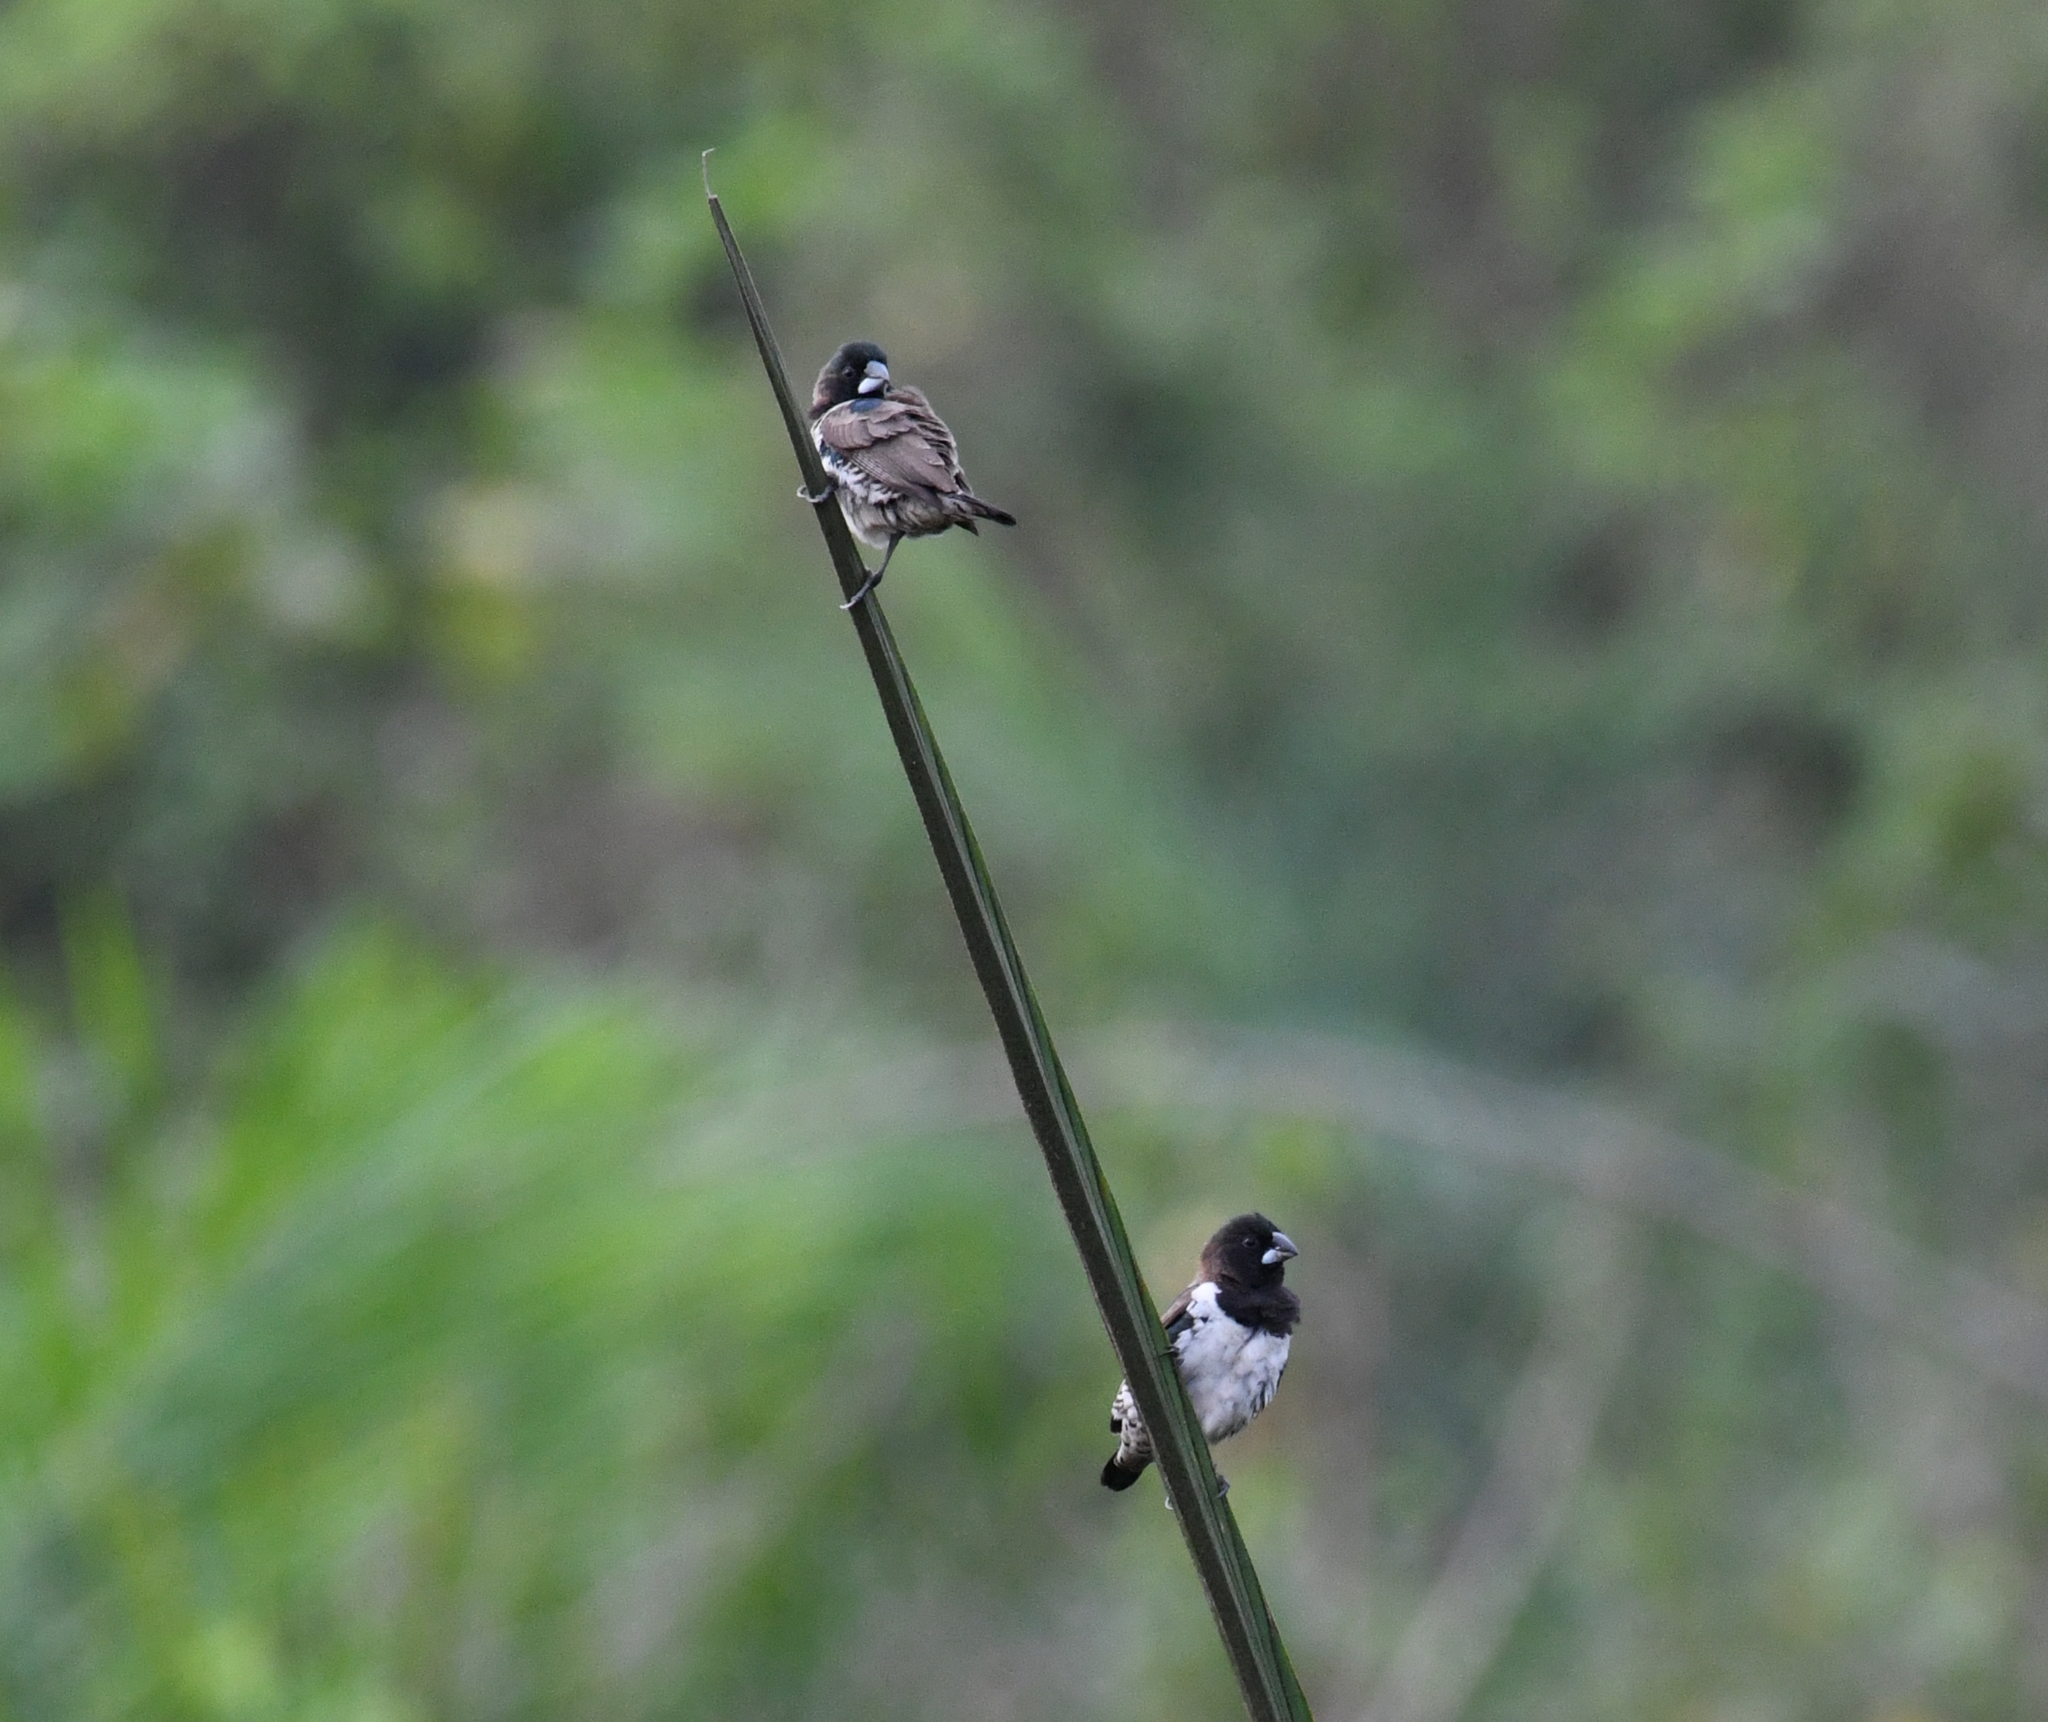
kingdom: Animalia
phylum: Chordata
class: Aves
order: Passeriformes
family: Estrildidae
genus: Lonchura
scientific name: Lonchura cucullata
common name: Bronze mannikin
